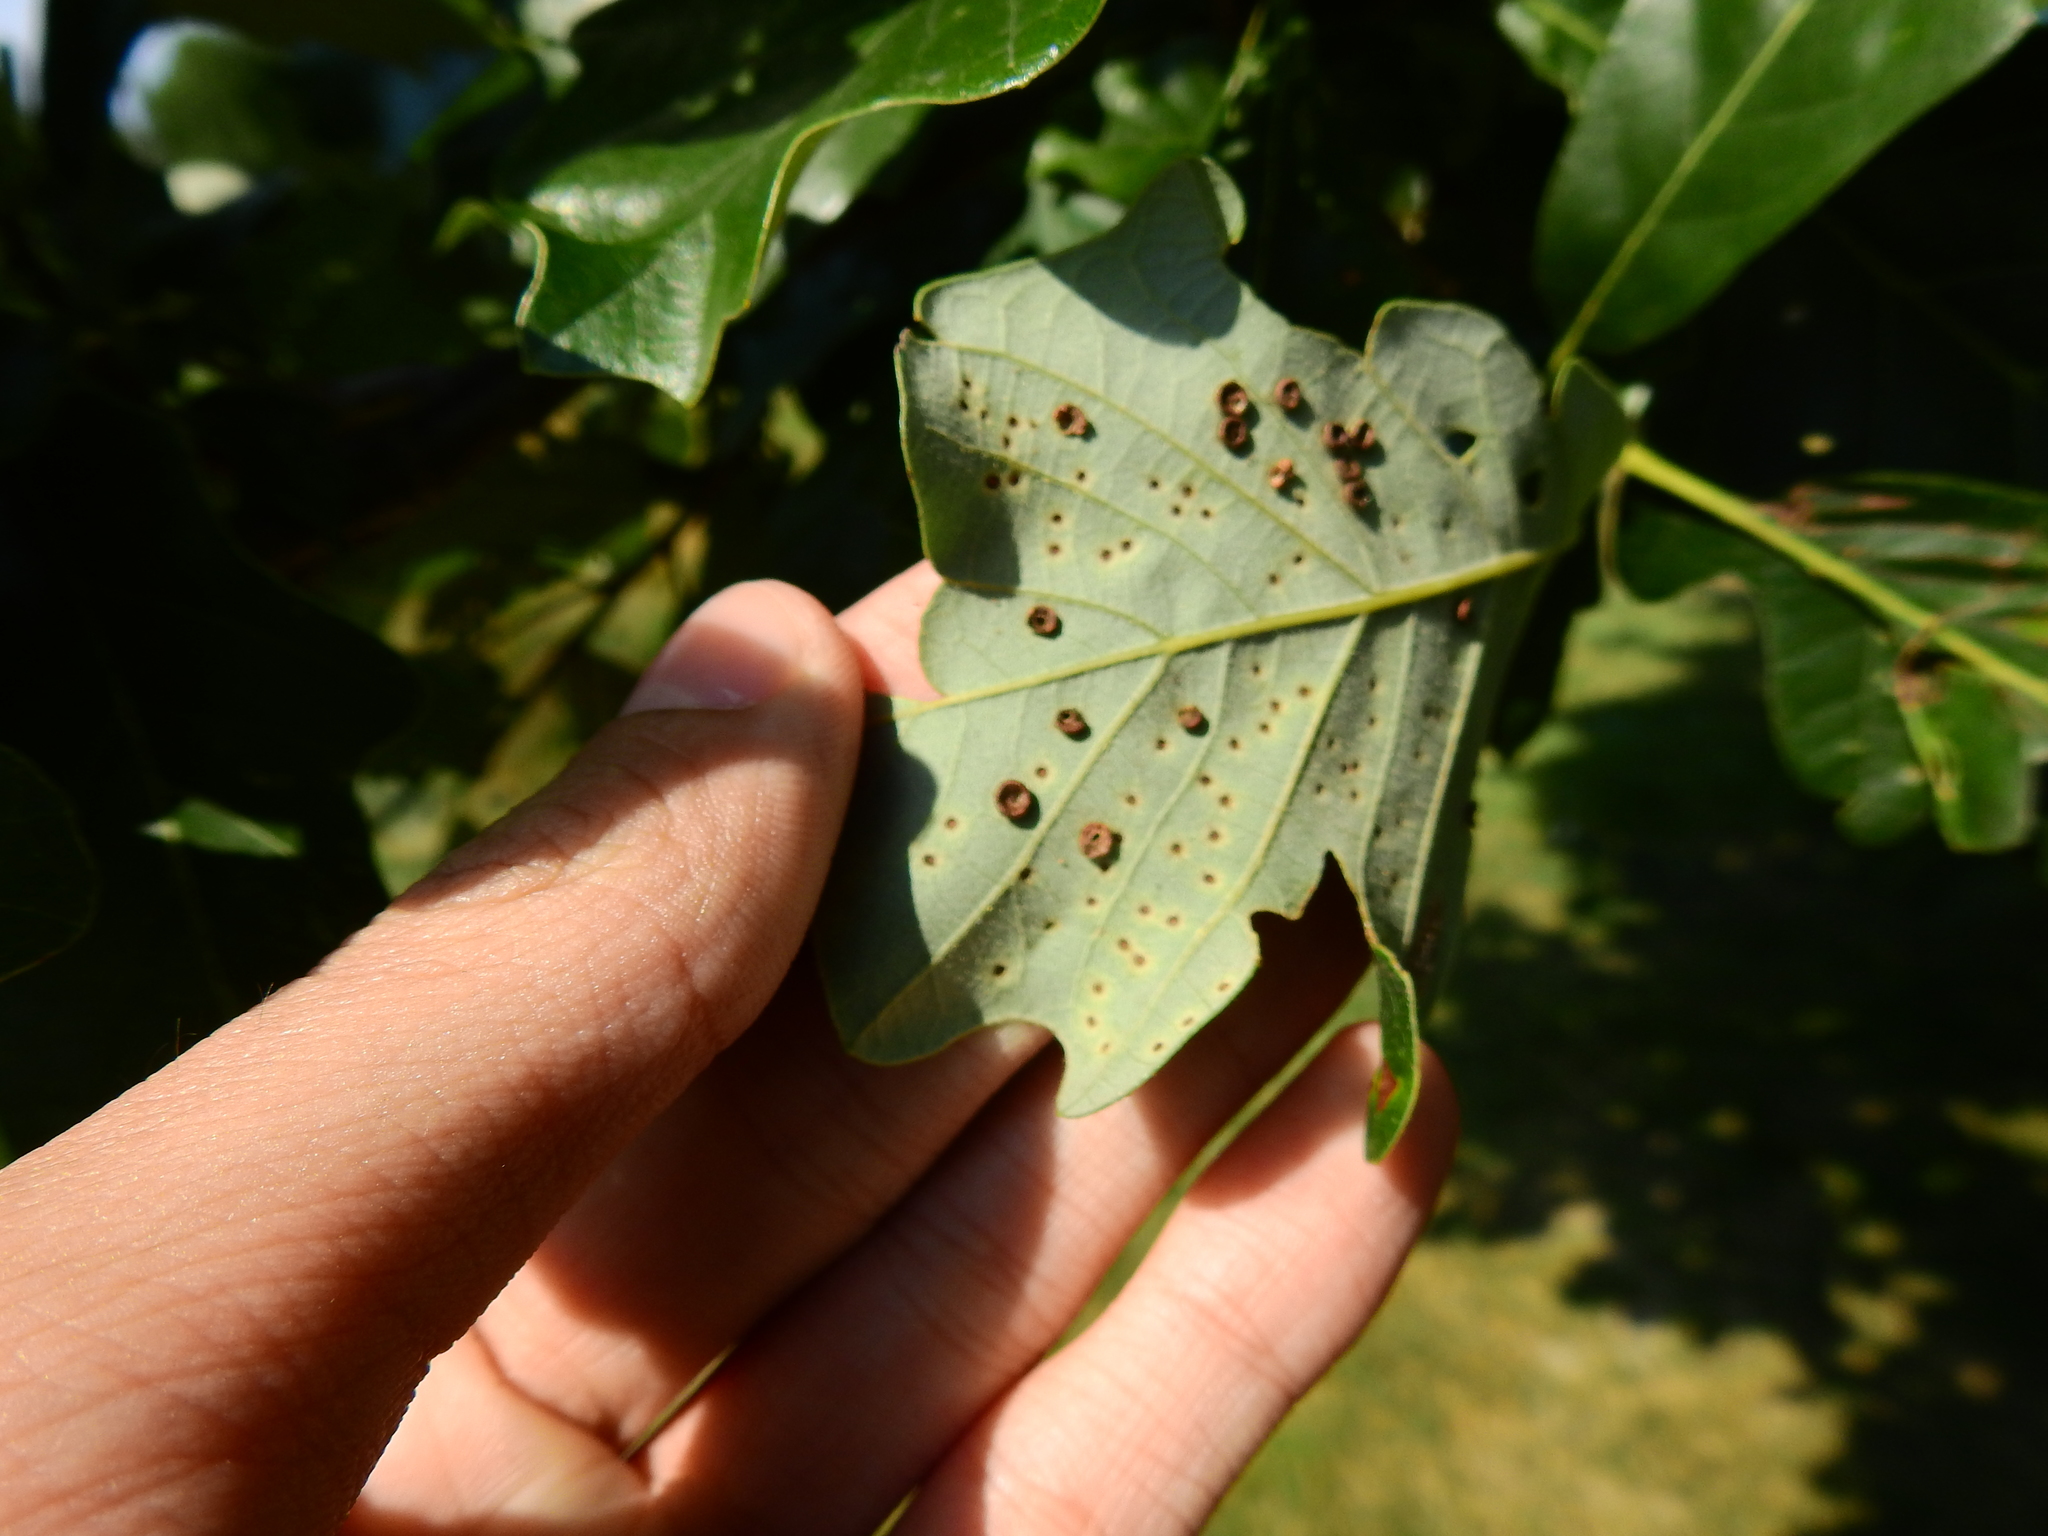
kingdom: Animalia
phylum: Arthropoda
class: Insecta
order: Hymenoptera
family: Cynipidae
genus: Neuroterus
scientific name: Neuroterus saltarius
